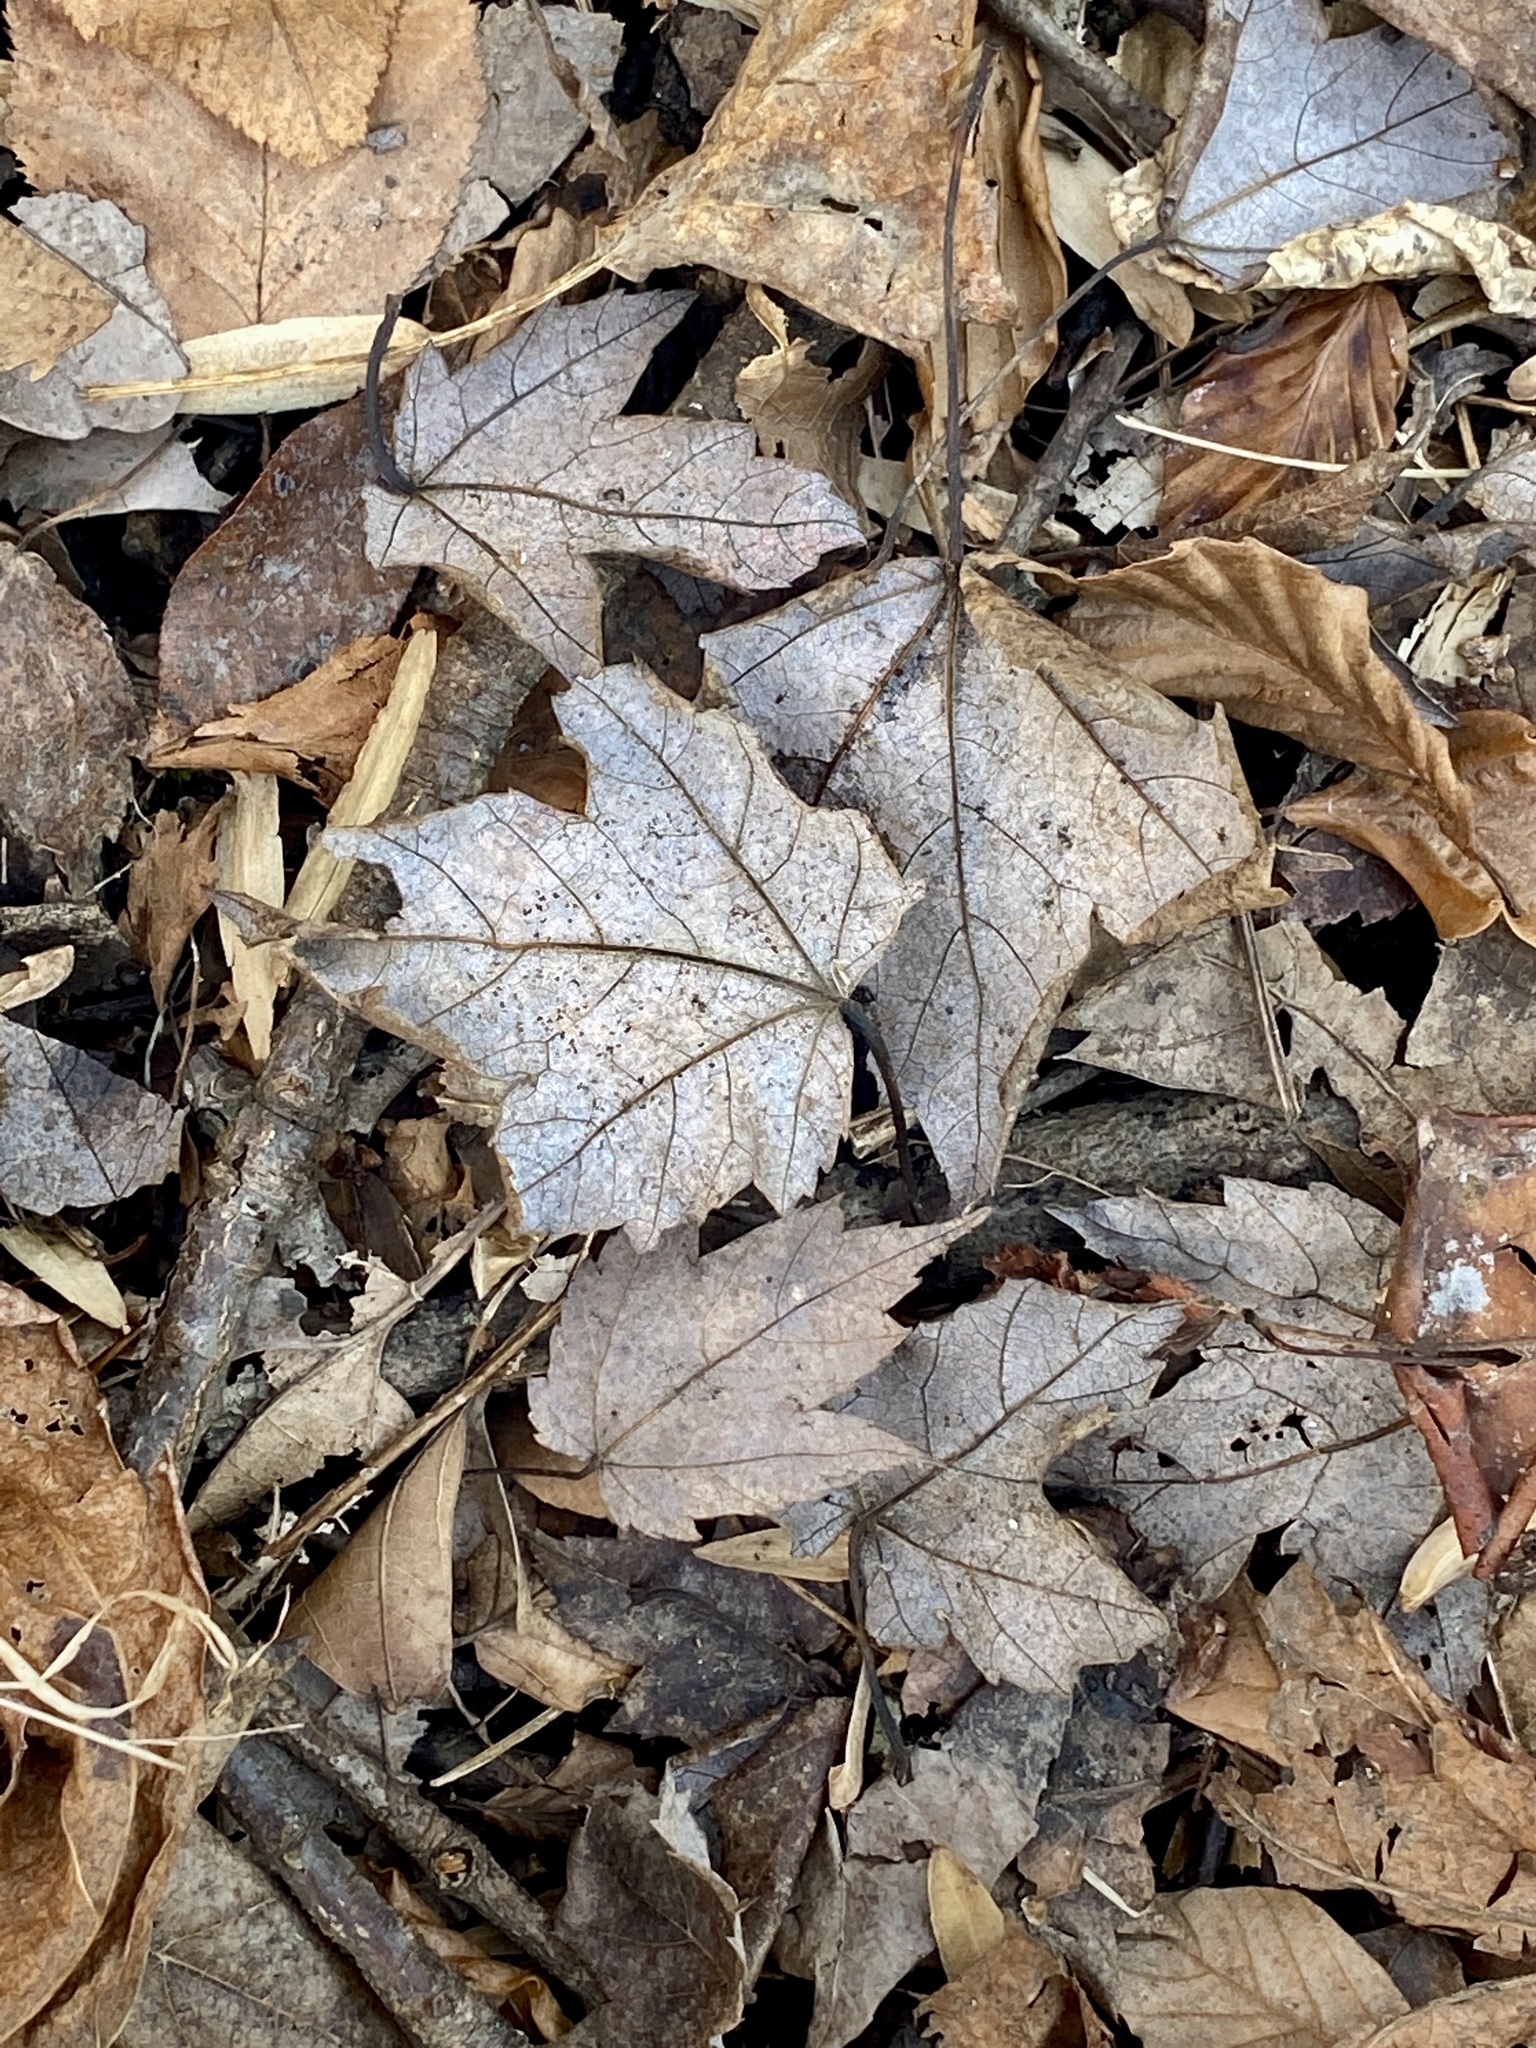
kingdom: Plantae
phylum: Tracheophyta
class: Magnoliopsida
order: Sapindales
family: Sapindaceae
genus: Acer
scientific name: Acer rubrum
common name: Red maple
